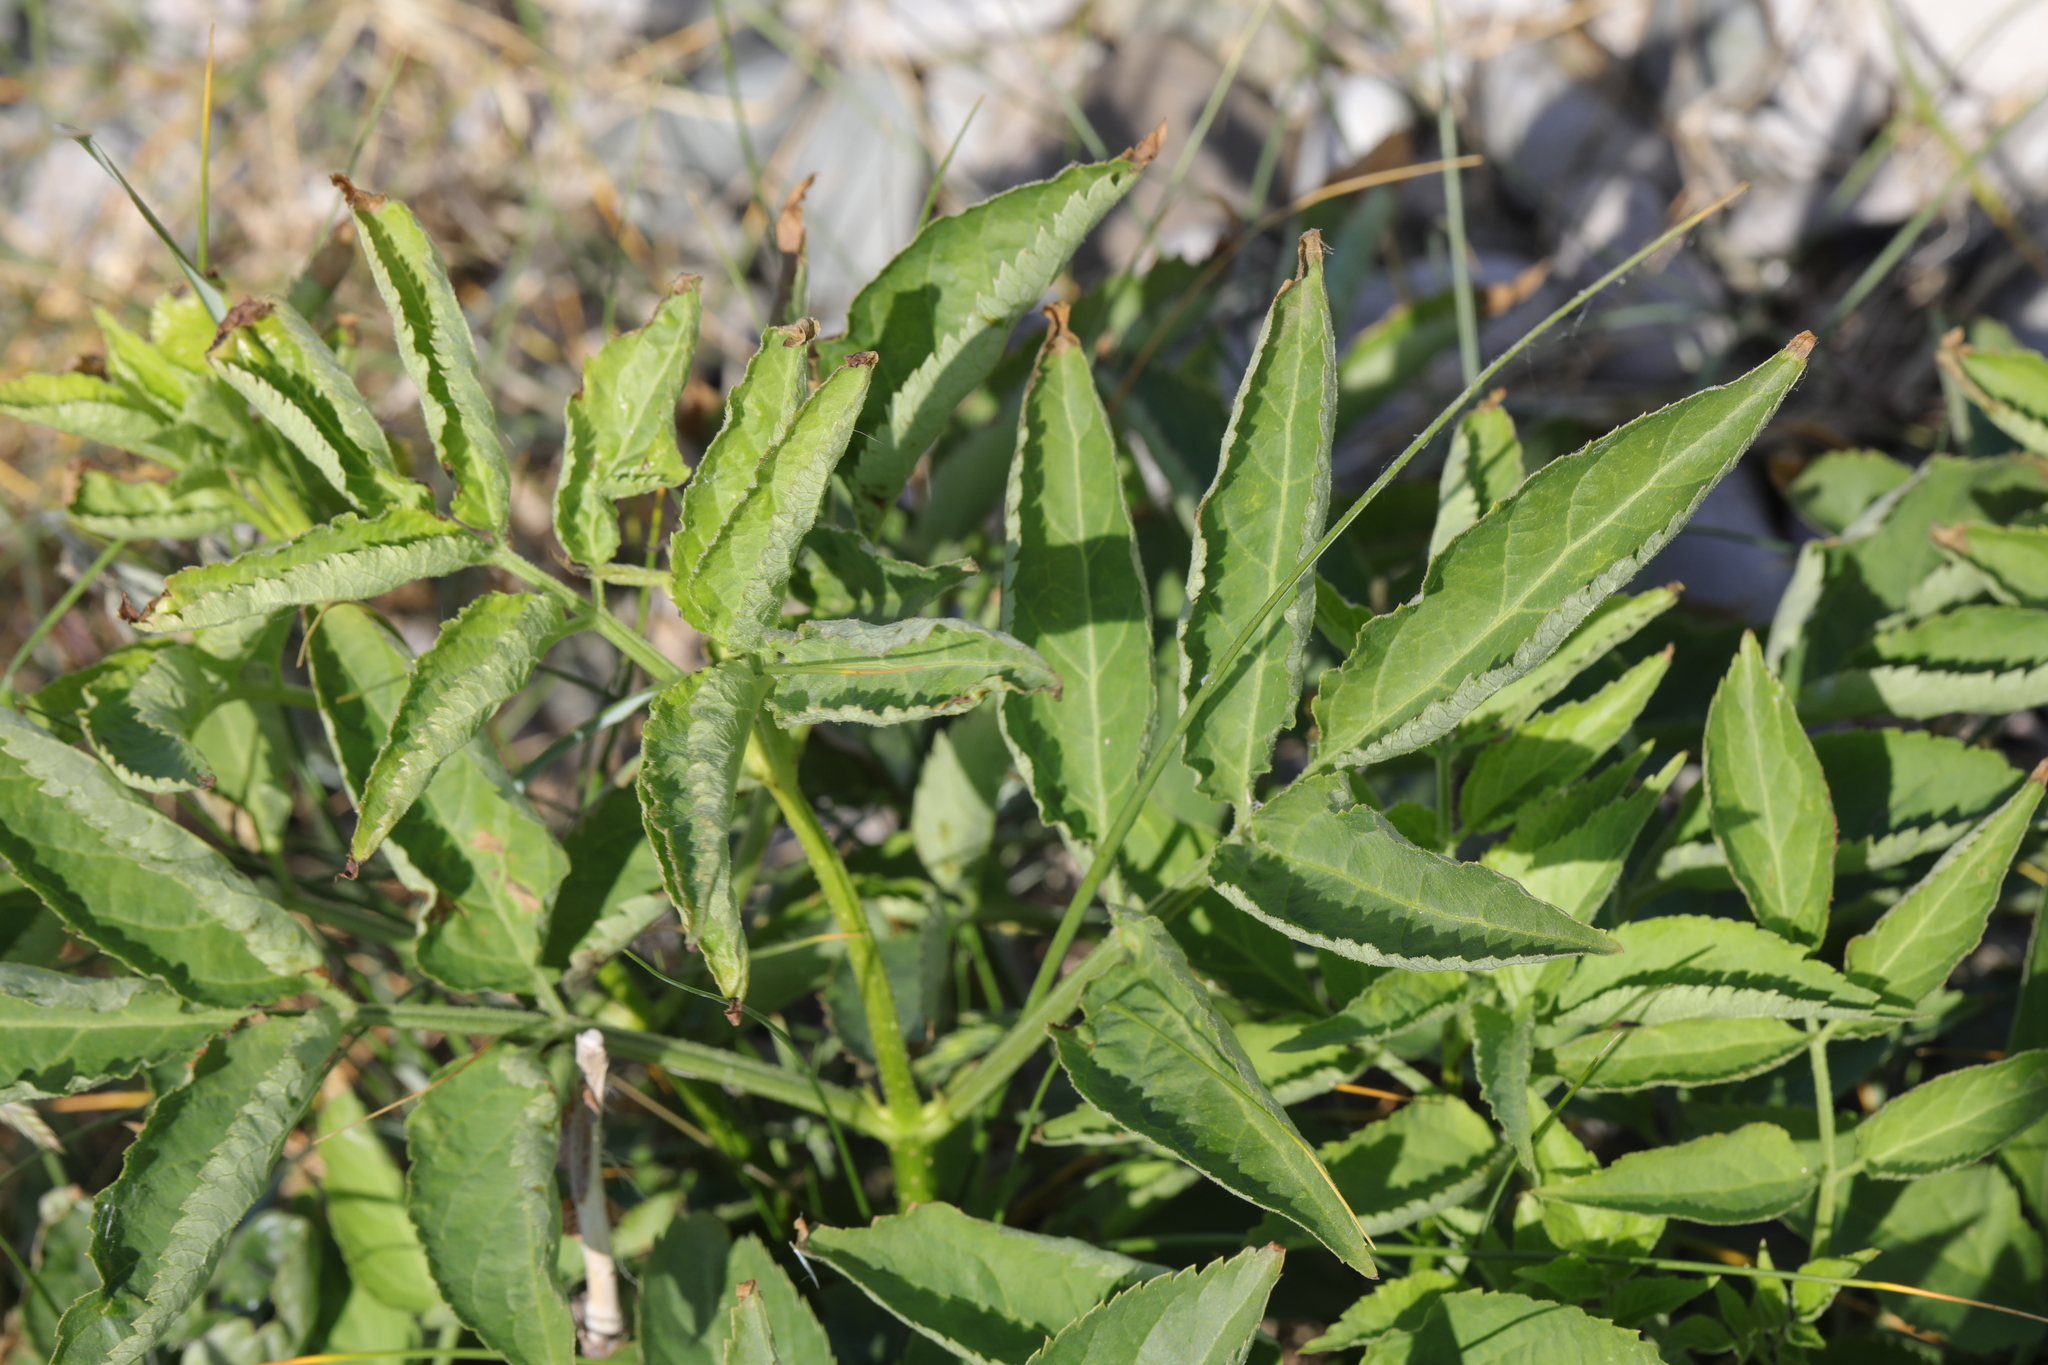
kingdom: Plantae
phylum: Tracheophyta
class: Magnoliopsida
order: Dipsacales
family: Viburnaceae
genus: Sambucus
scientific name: Sambucus nigra
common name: Elder
